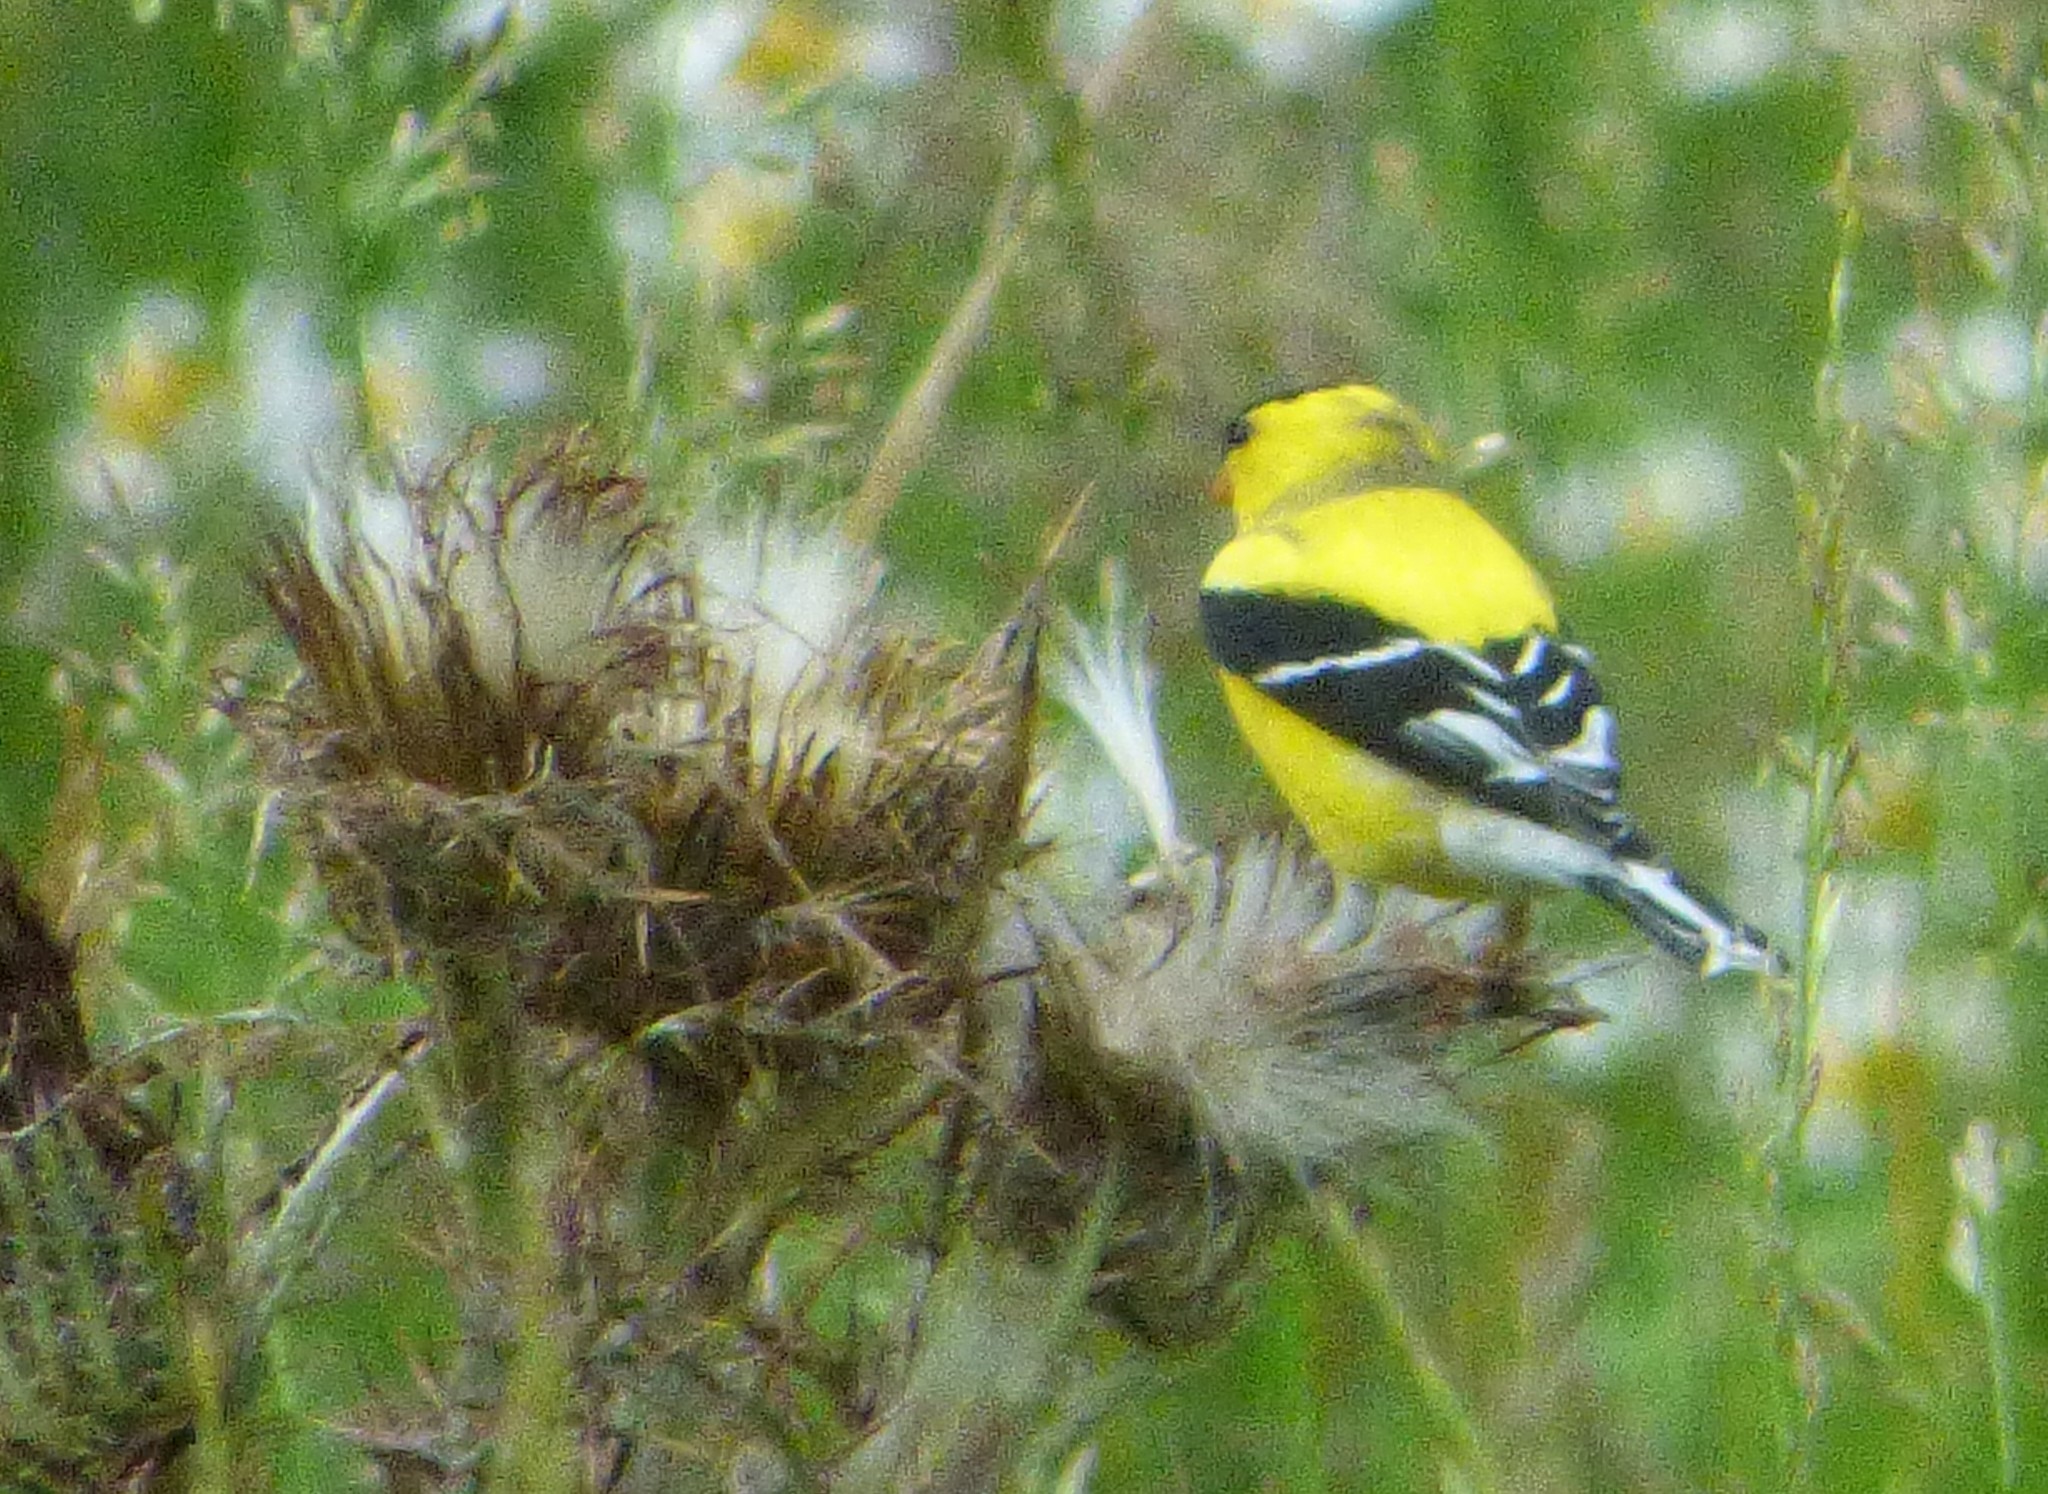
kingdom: Animalia
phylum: Chordata
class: Aves
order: Passeriformes
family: Fringillidae
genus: Spinus
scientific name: Spinus tristis
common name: American goldfinch
